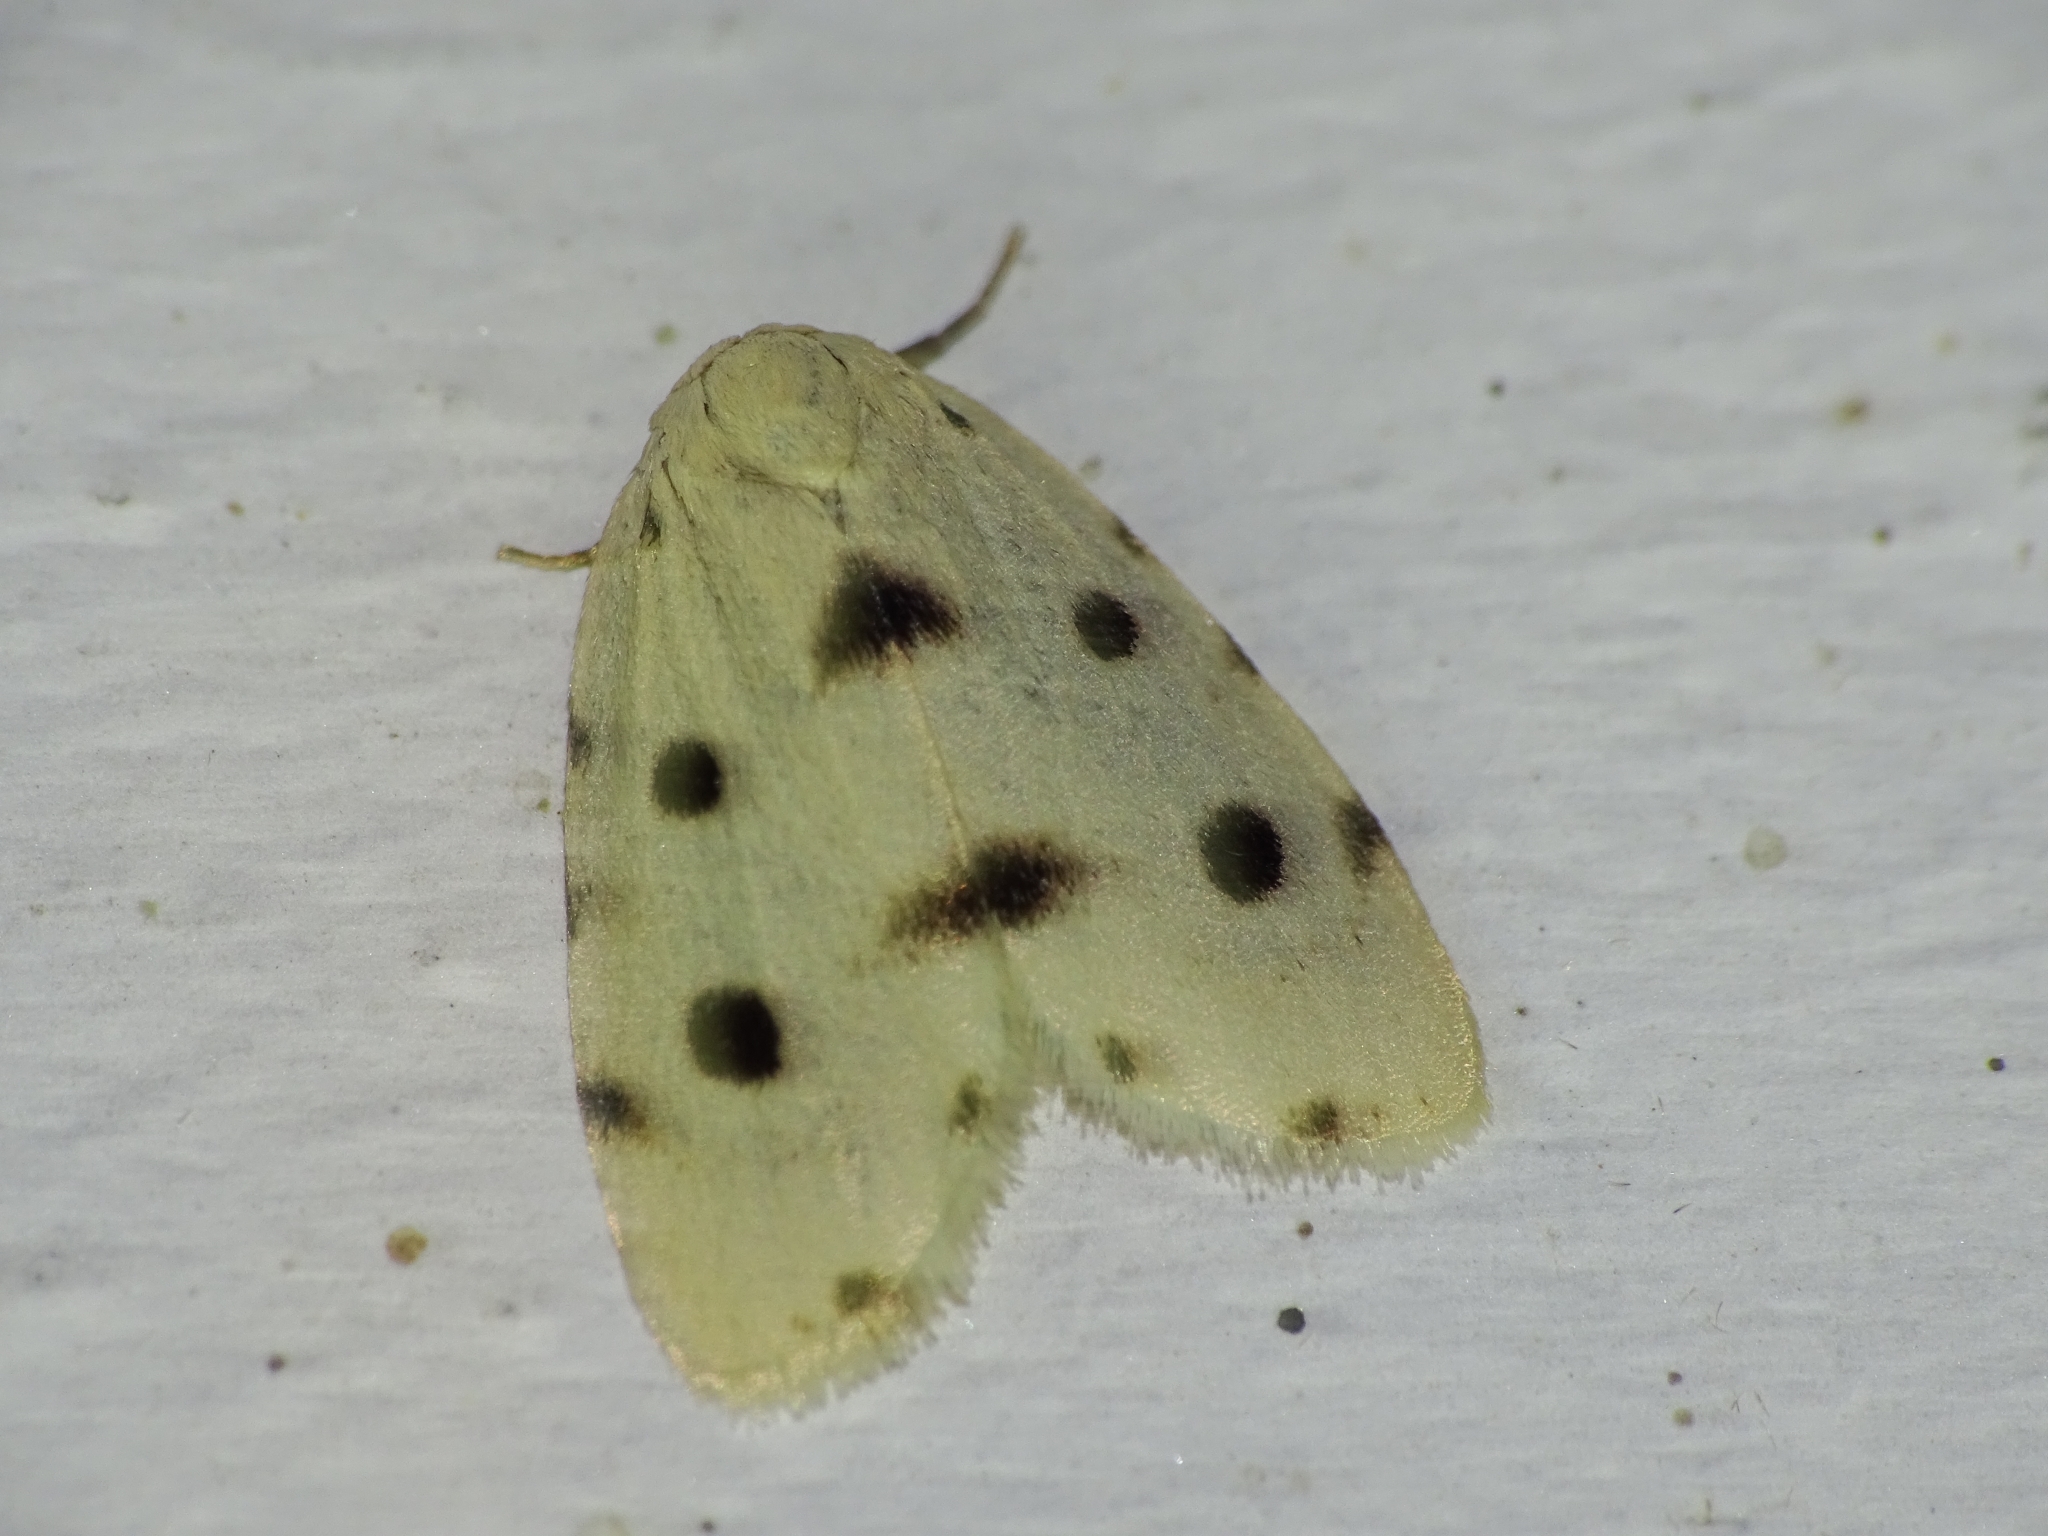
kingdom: Animalia
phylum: Arthropoda
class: Insecta
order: Lepidoptera
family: Erebidae
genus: Siccia
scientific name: Siccia spotoptera
